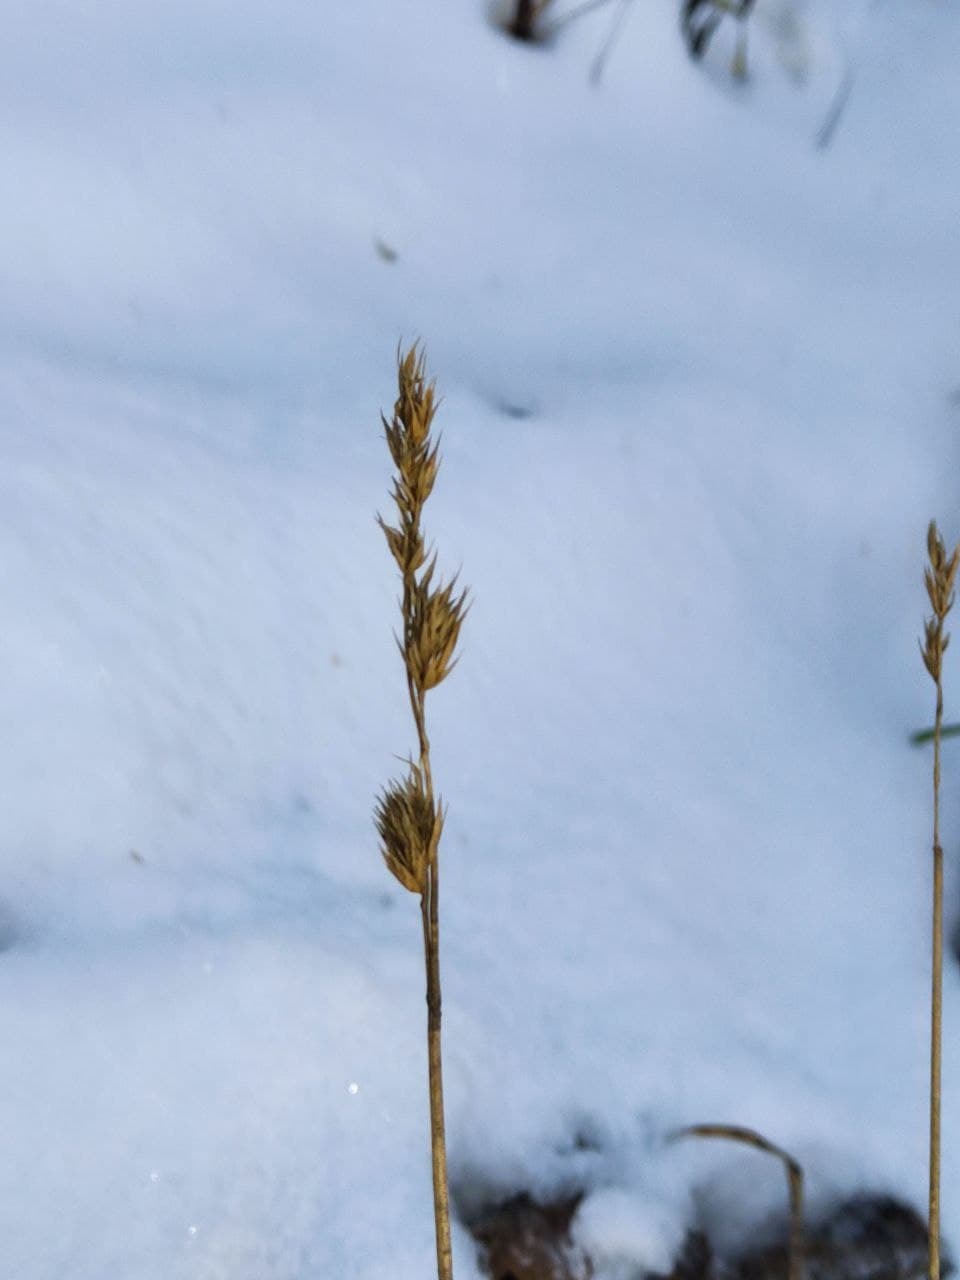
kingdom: Plantae
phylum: Tracheophyta
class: Liliopsida
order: Poales
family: Poaceae
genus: Dactylis
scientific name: Dactylis glomerata
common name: Orchardgrass
